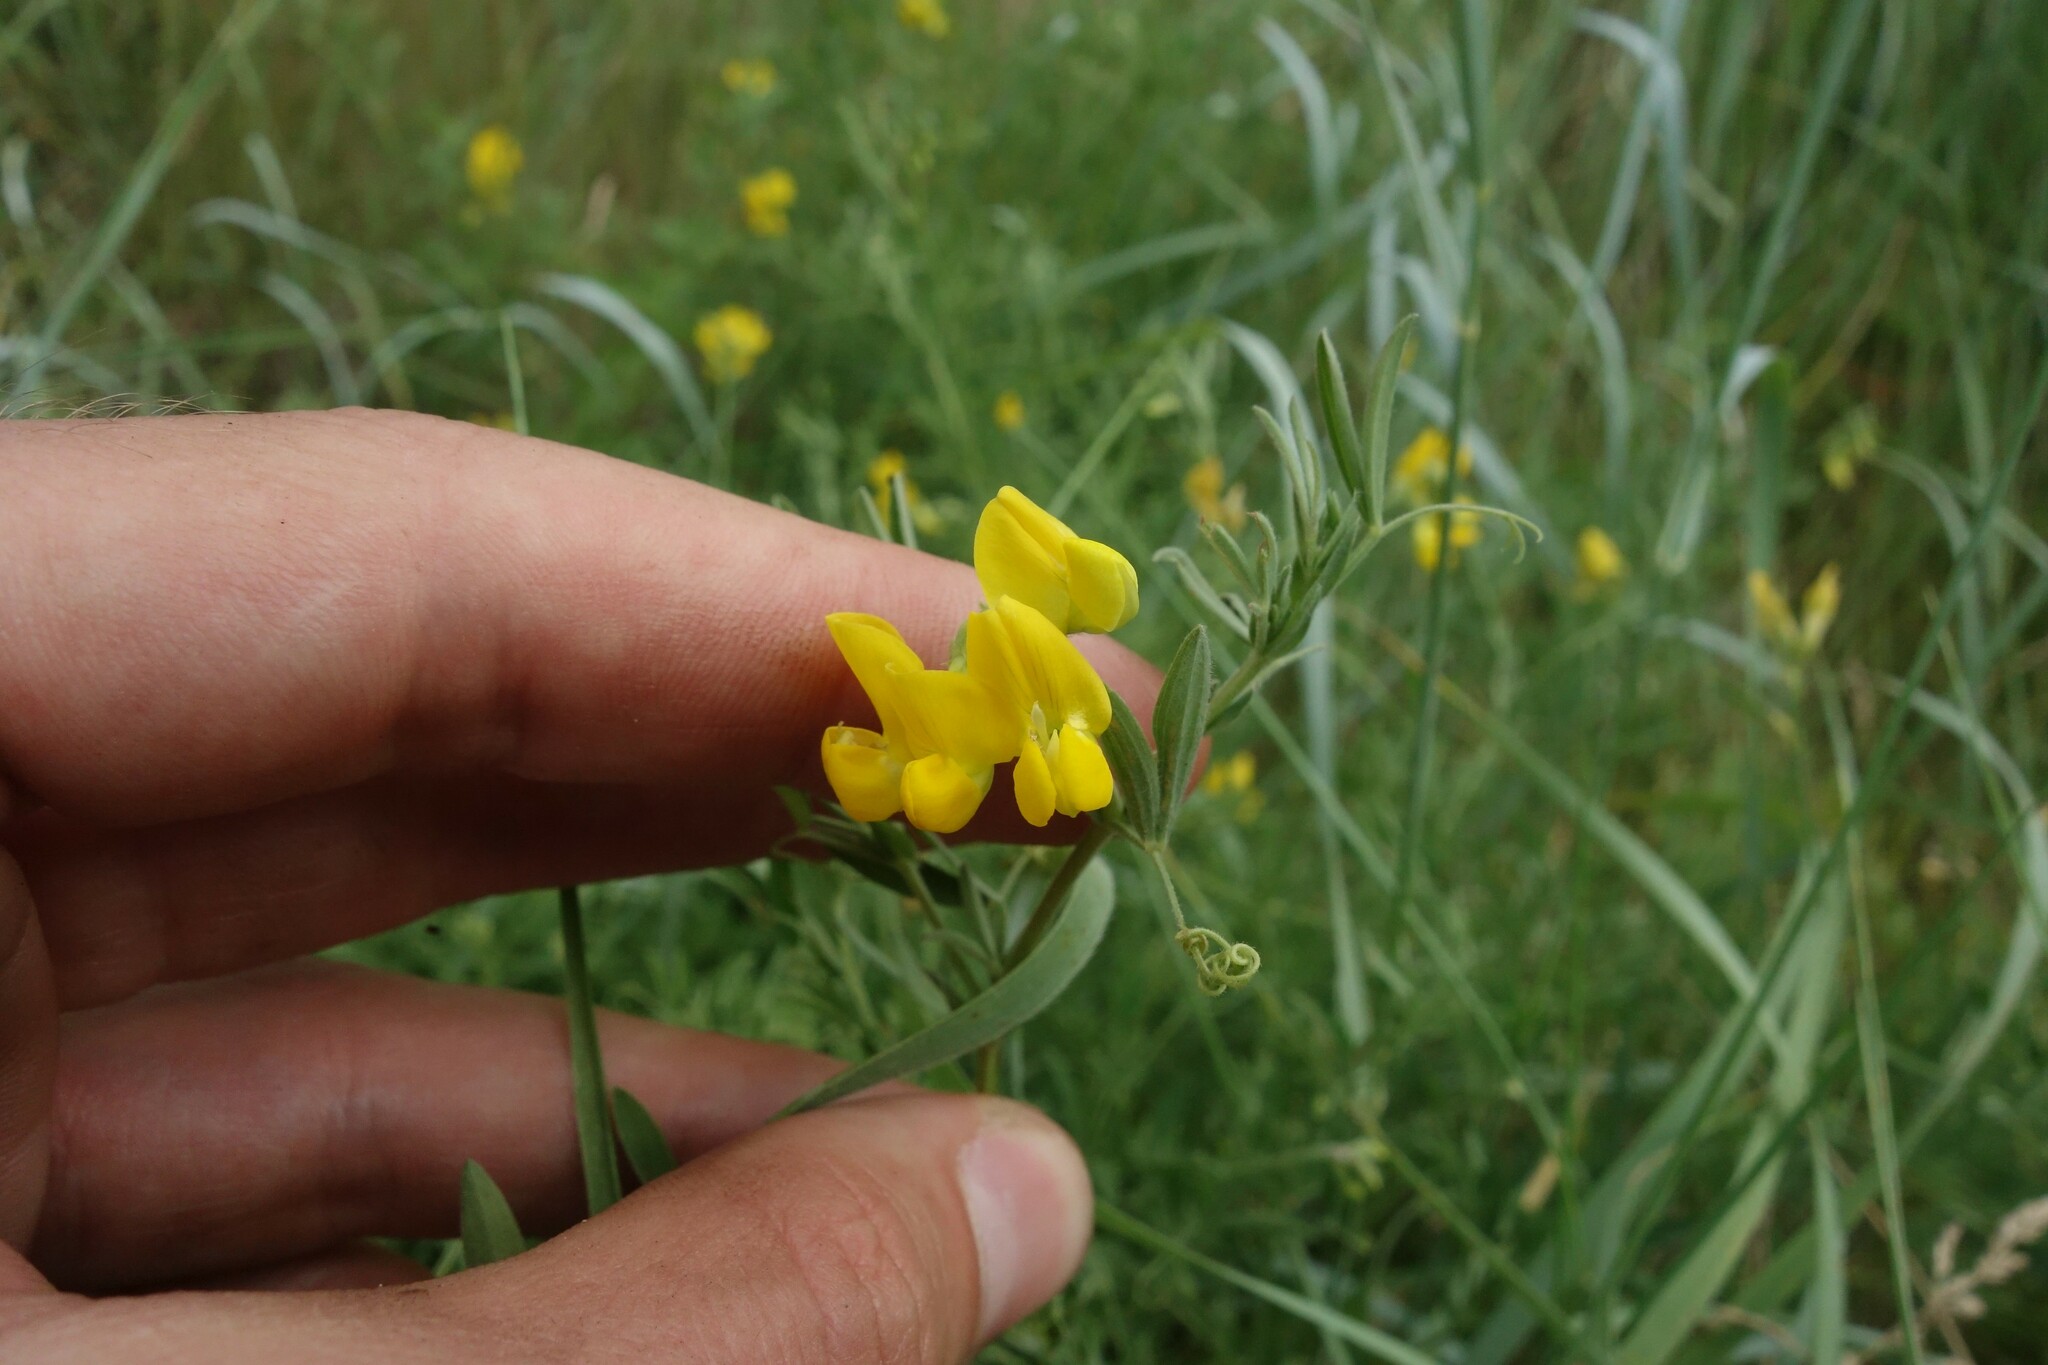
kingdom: Plantae
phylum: Tracheophyta
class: Magnoliopsida
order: Fabales
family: Fabaceae
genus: Lathyrus
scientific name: Lathyrus pratensis
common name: Meadow vetchling
